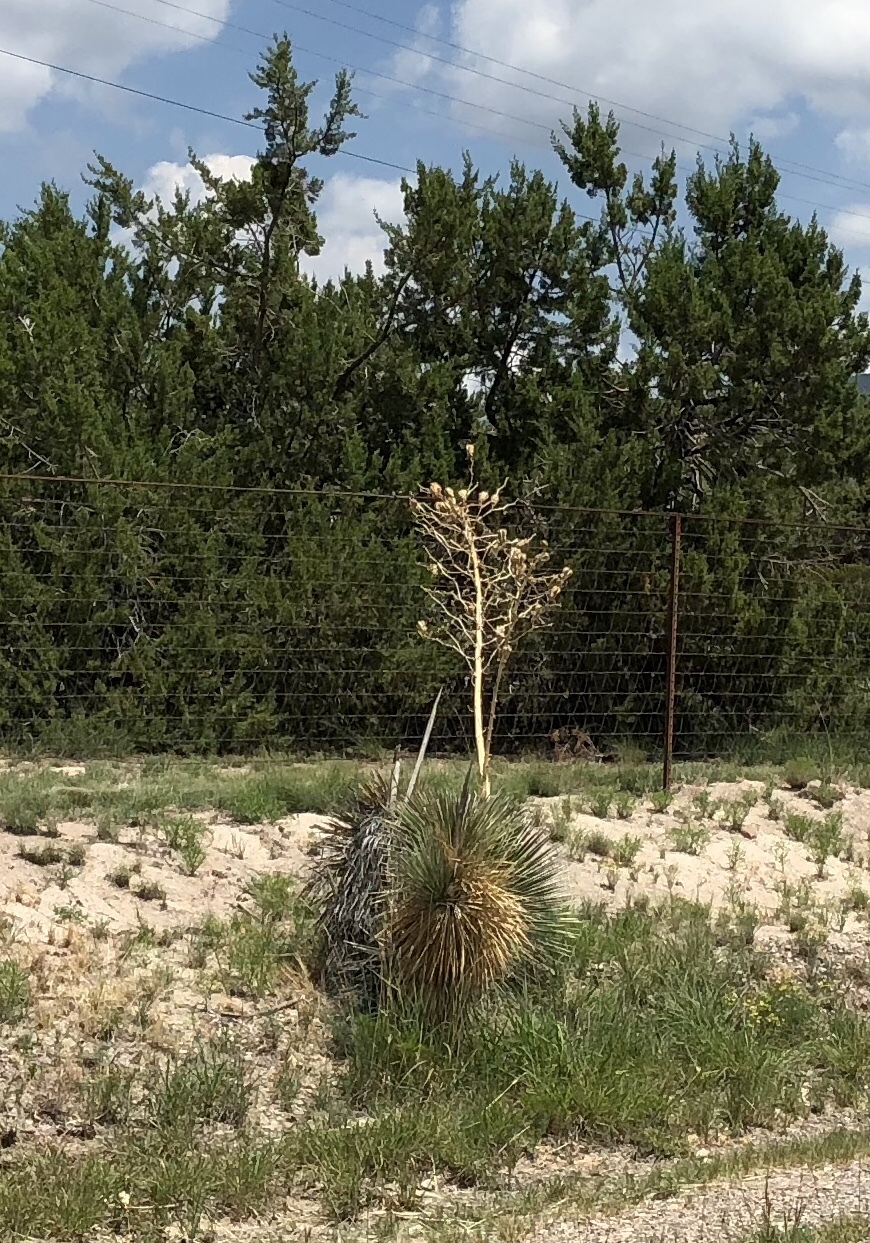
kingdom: Plantae
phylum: Tracheophyta
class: Liliopsida
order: Asparagales
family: Asparagaceae
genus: Yucca
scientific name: Yucca elata
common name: Palmella
